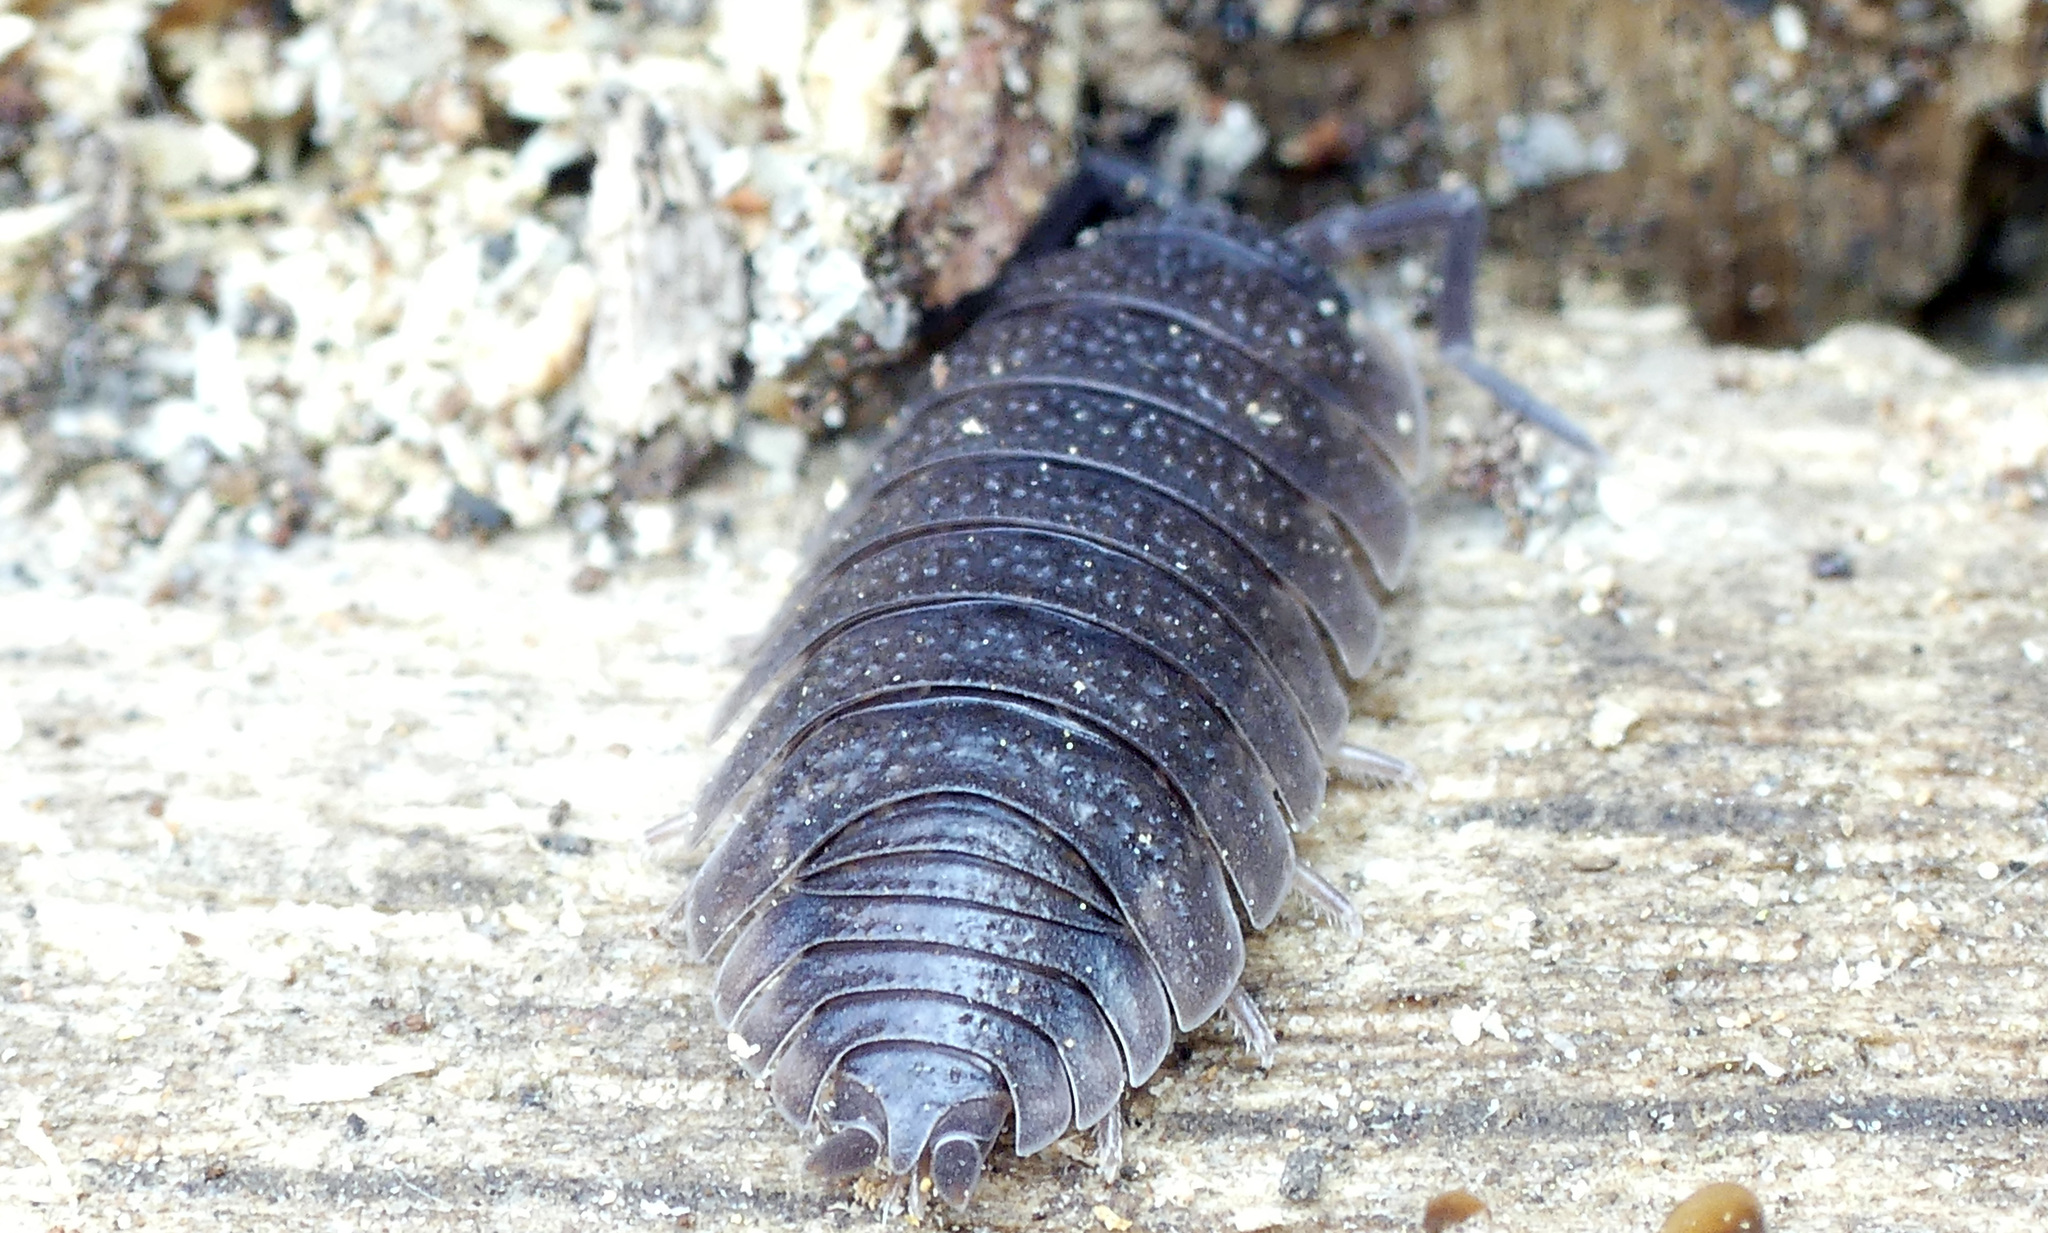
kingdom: Animalia
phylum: Arthropoda
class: Malacostraca
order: Isopoda
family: Porcellionidae
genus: Porcellio
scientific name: Porcellio scaber
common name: Common rough woodlouse
